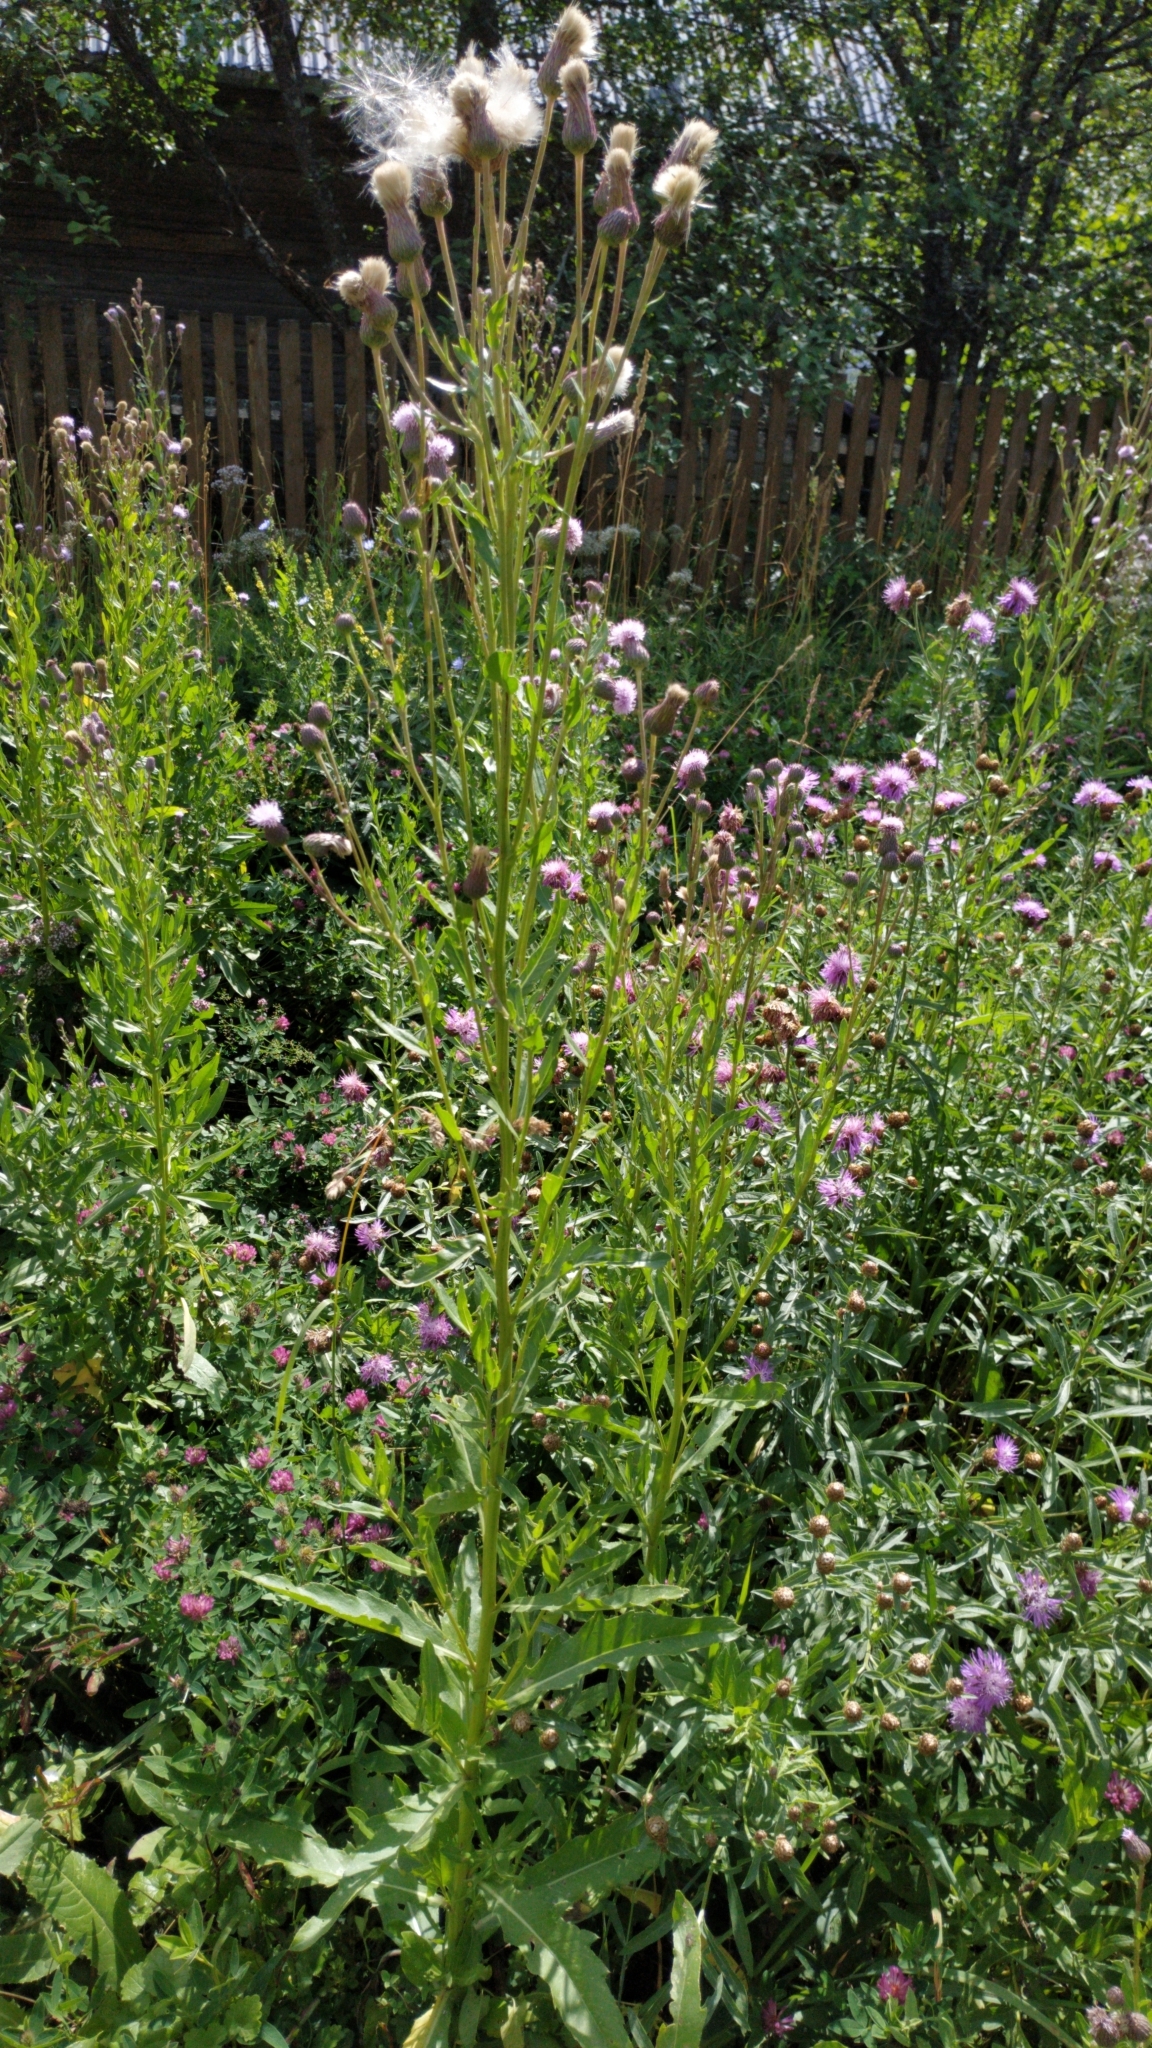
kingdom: Plantae
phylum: Tracheophyta
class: Magnoliopsida
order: Asterales
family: Asteraceae
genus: Cirsium
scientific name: Cirsium arvense
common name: Creeping thistle
